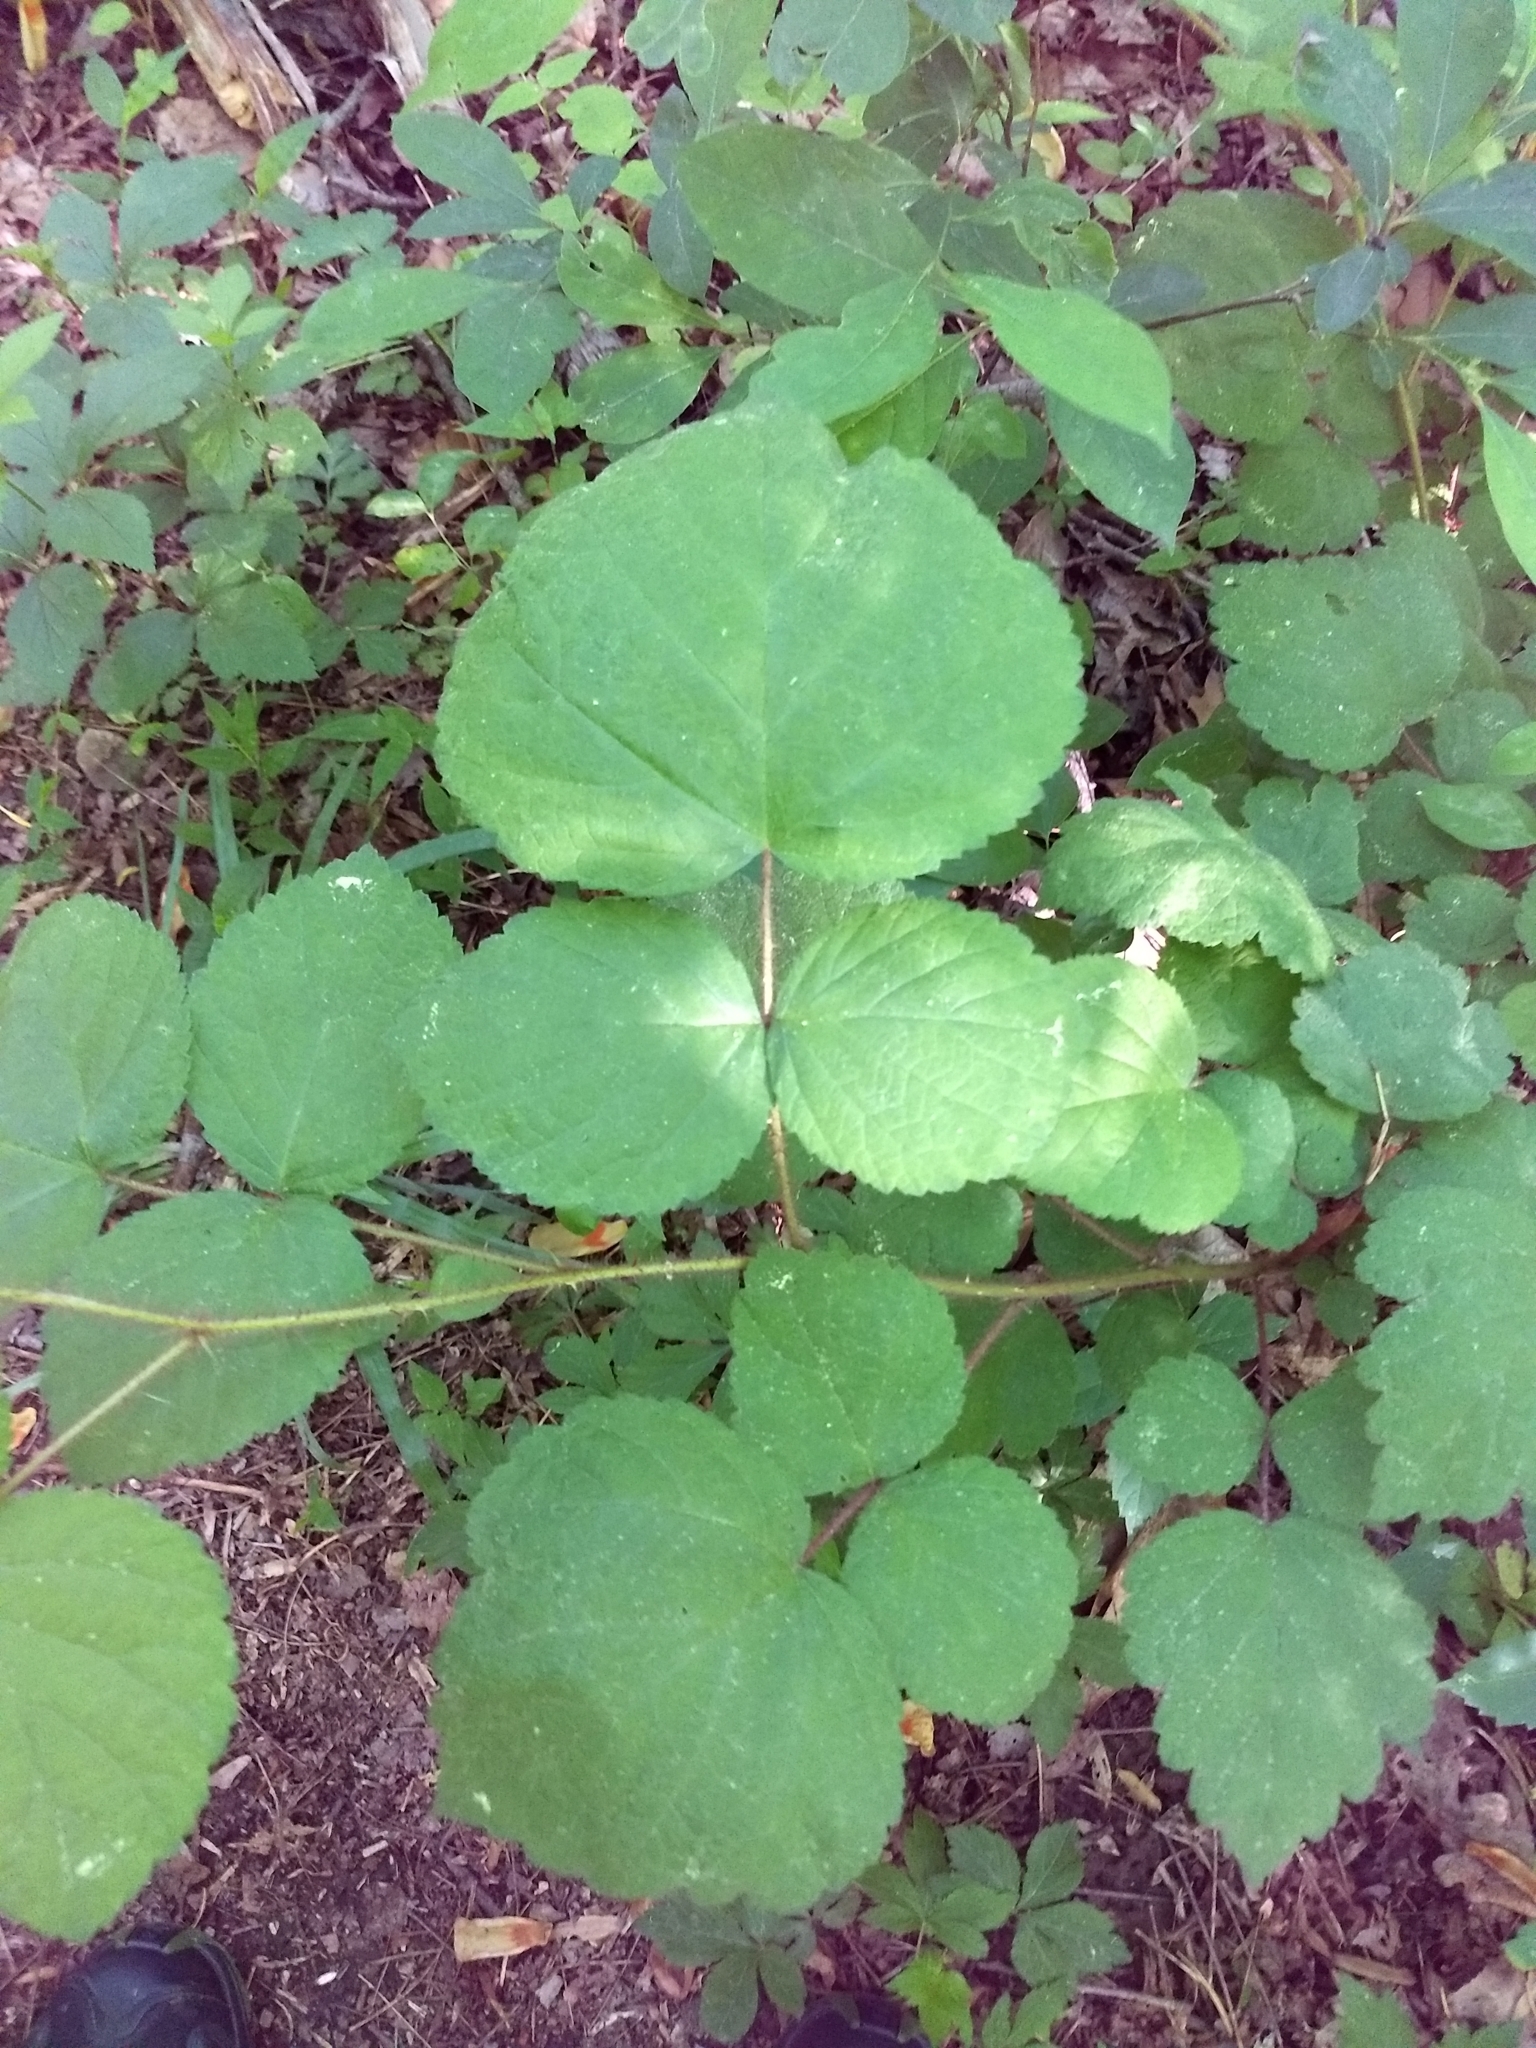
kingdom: Plantae
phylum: Tracheophyta
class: Magnoliopsida
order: Rosales
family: Rosaceae
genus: Rubus
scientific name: Rubus phoenicolasius
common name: Japanese wineberry
